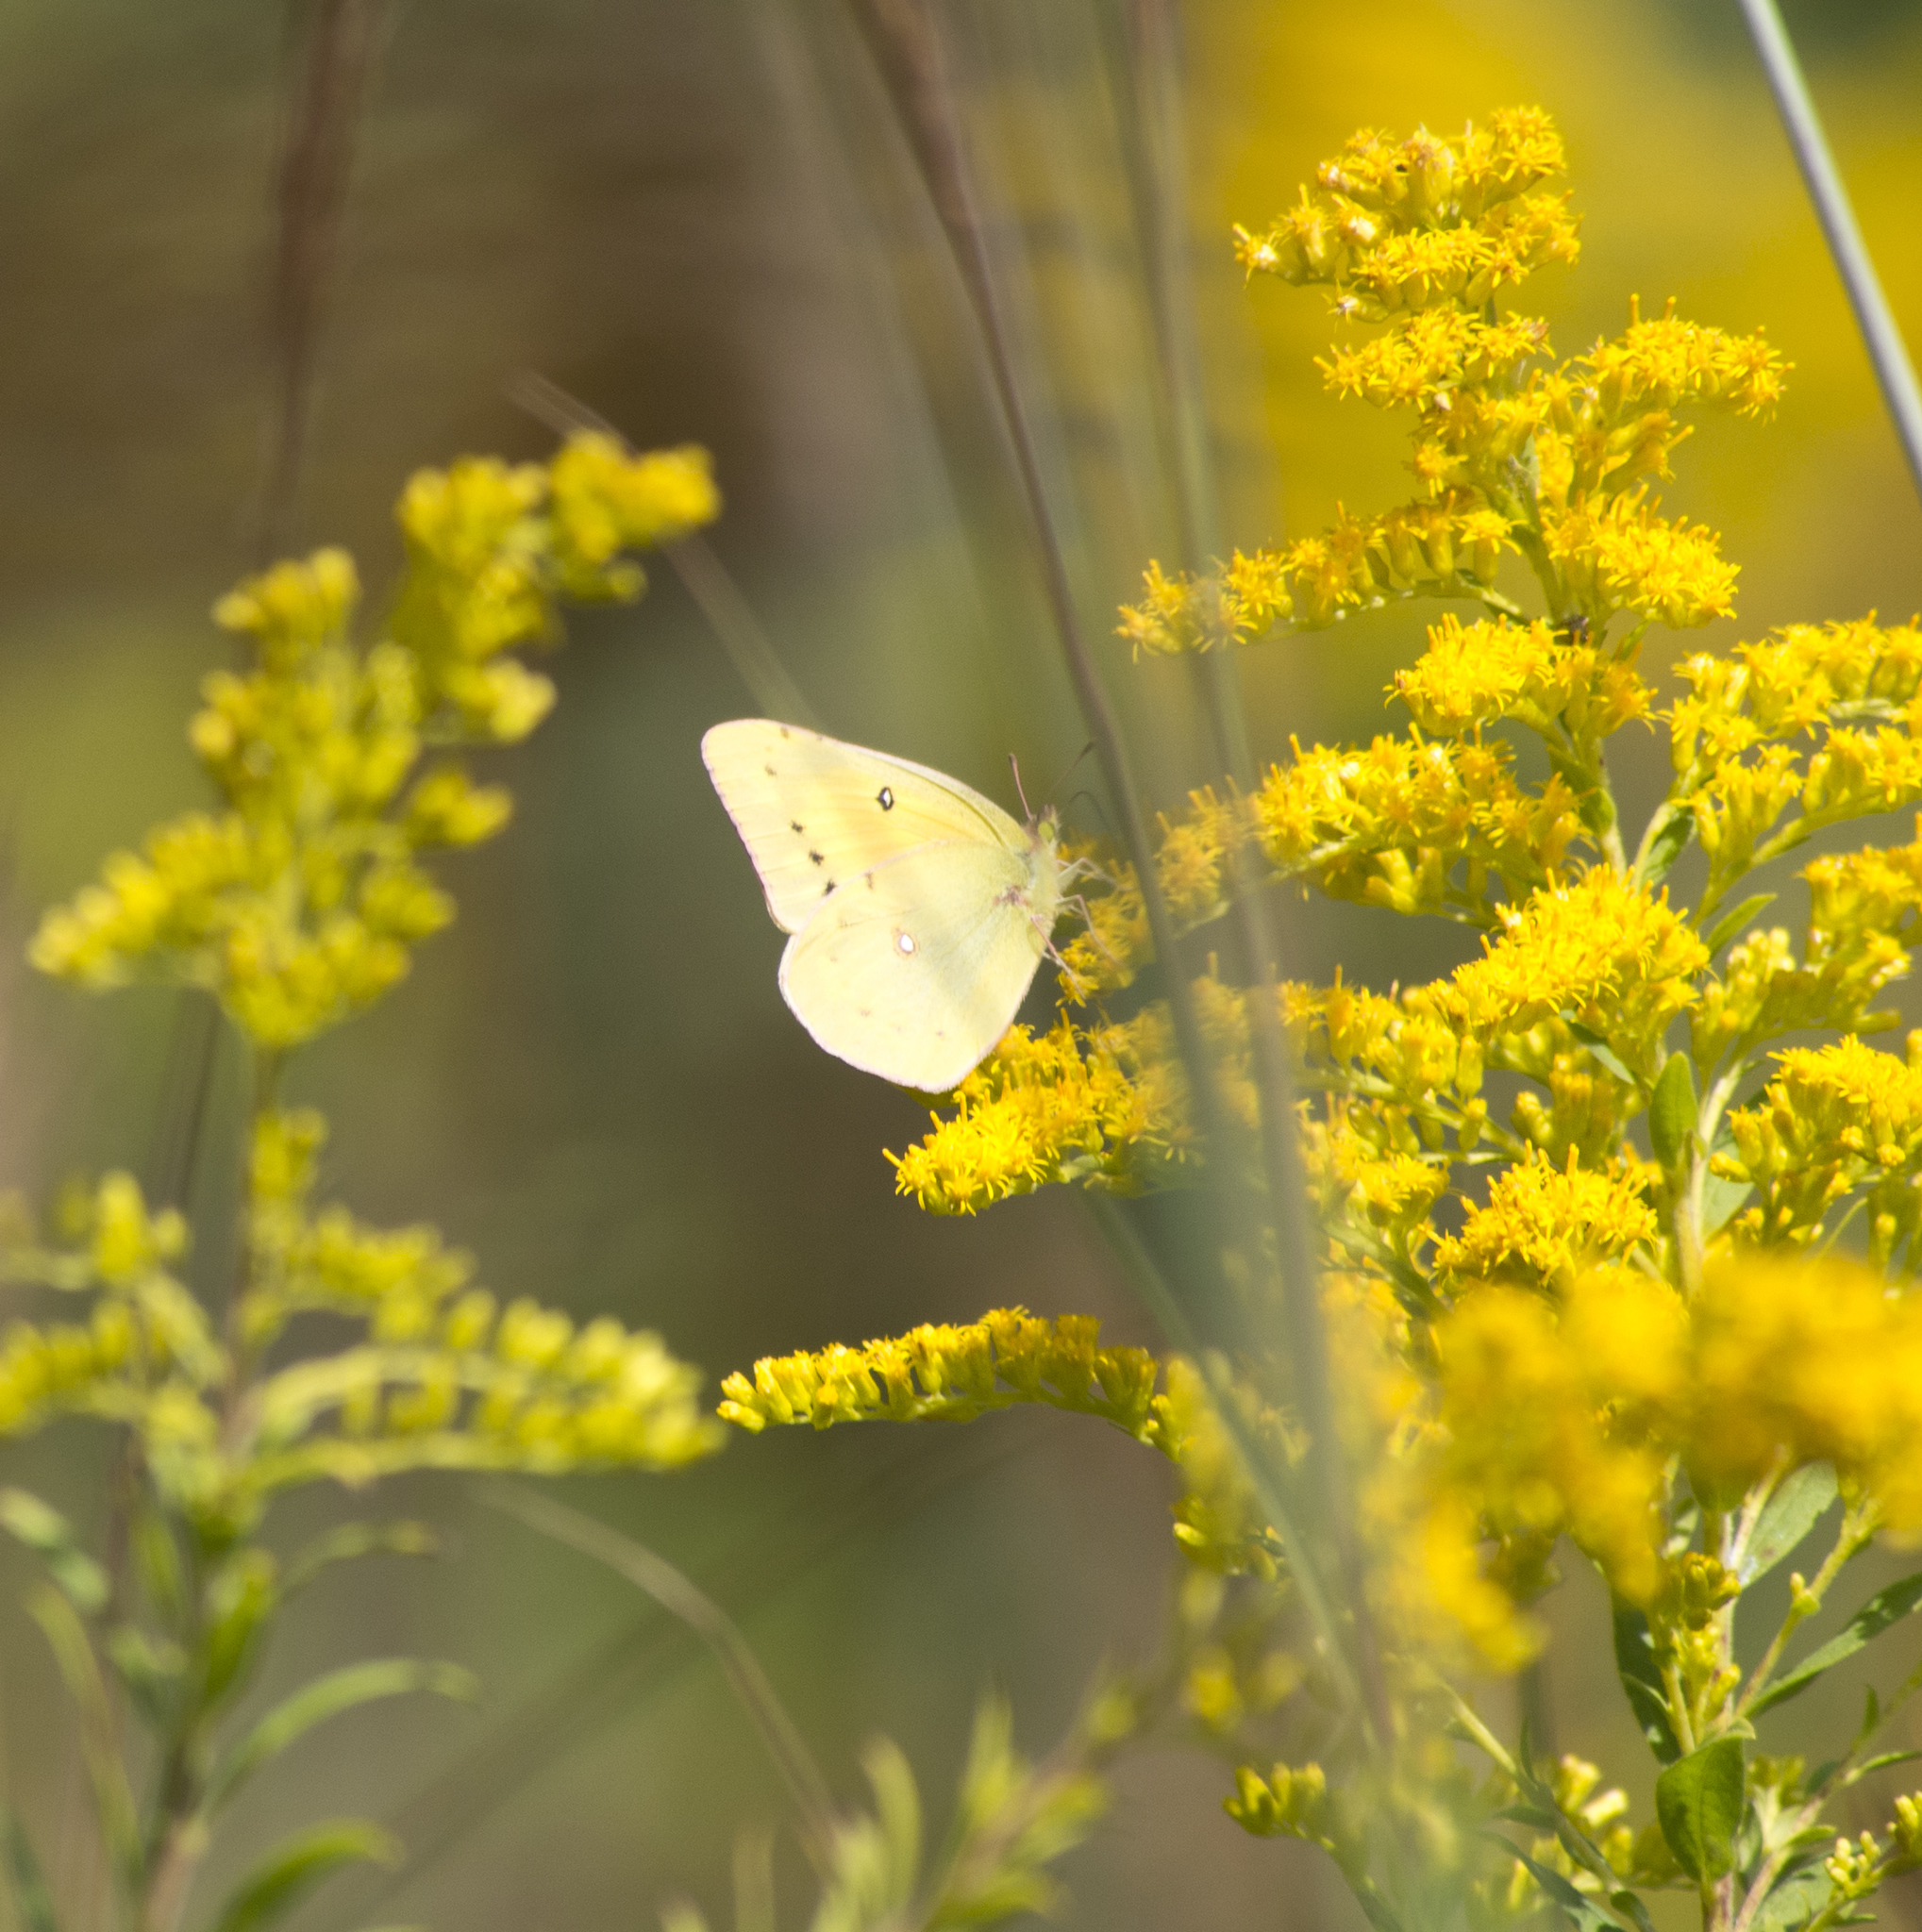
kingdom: Animalia
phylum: Arthropoda
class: Insecta
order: Lepidoptera
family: Pieridae
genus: Colias
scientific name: Colias eurytheme
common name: Alfalfa butterfly
